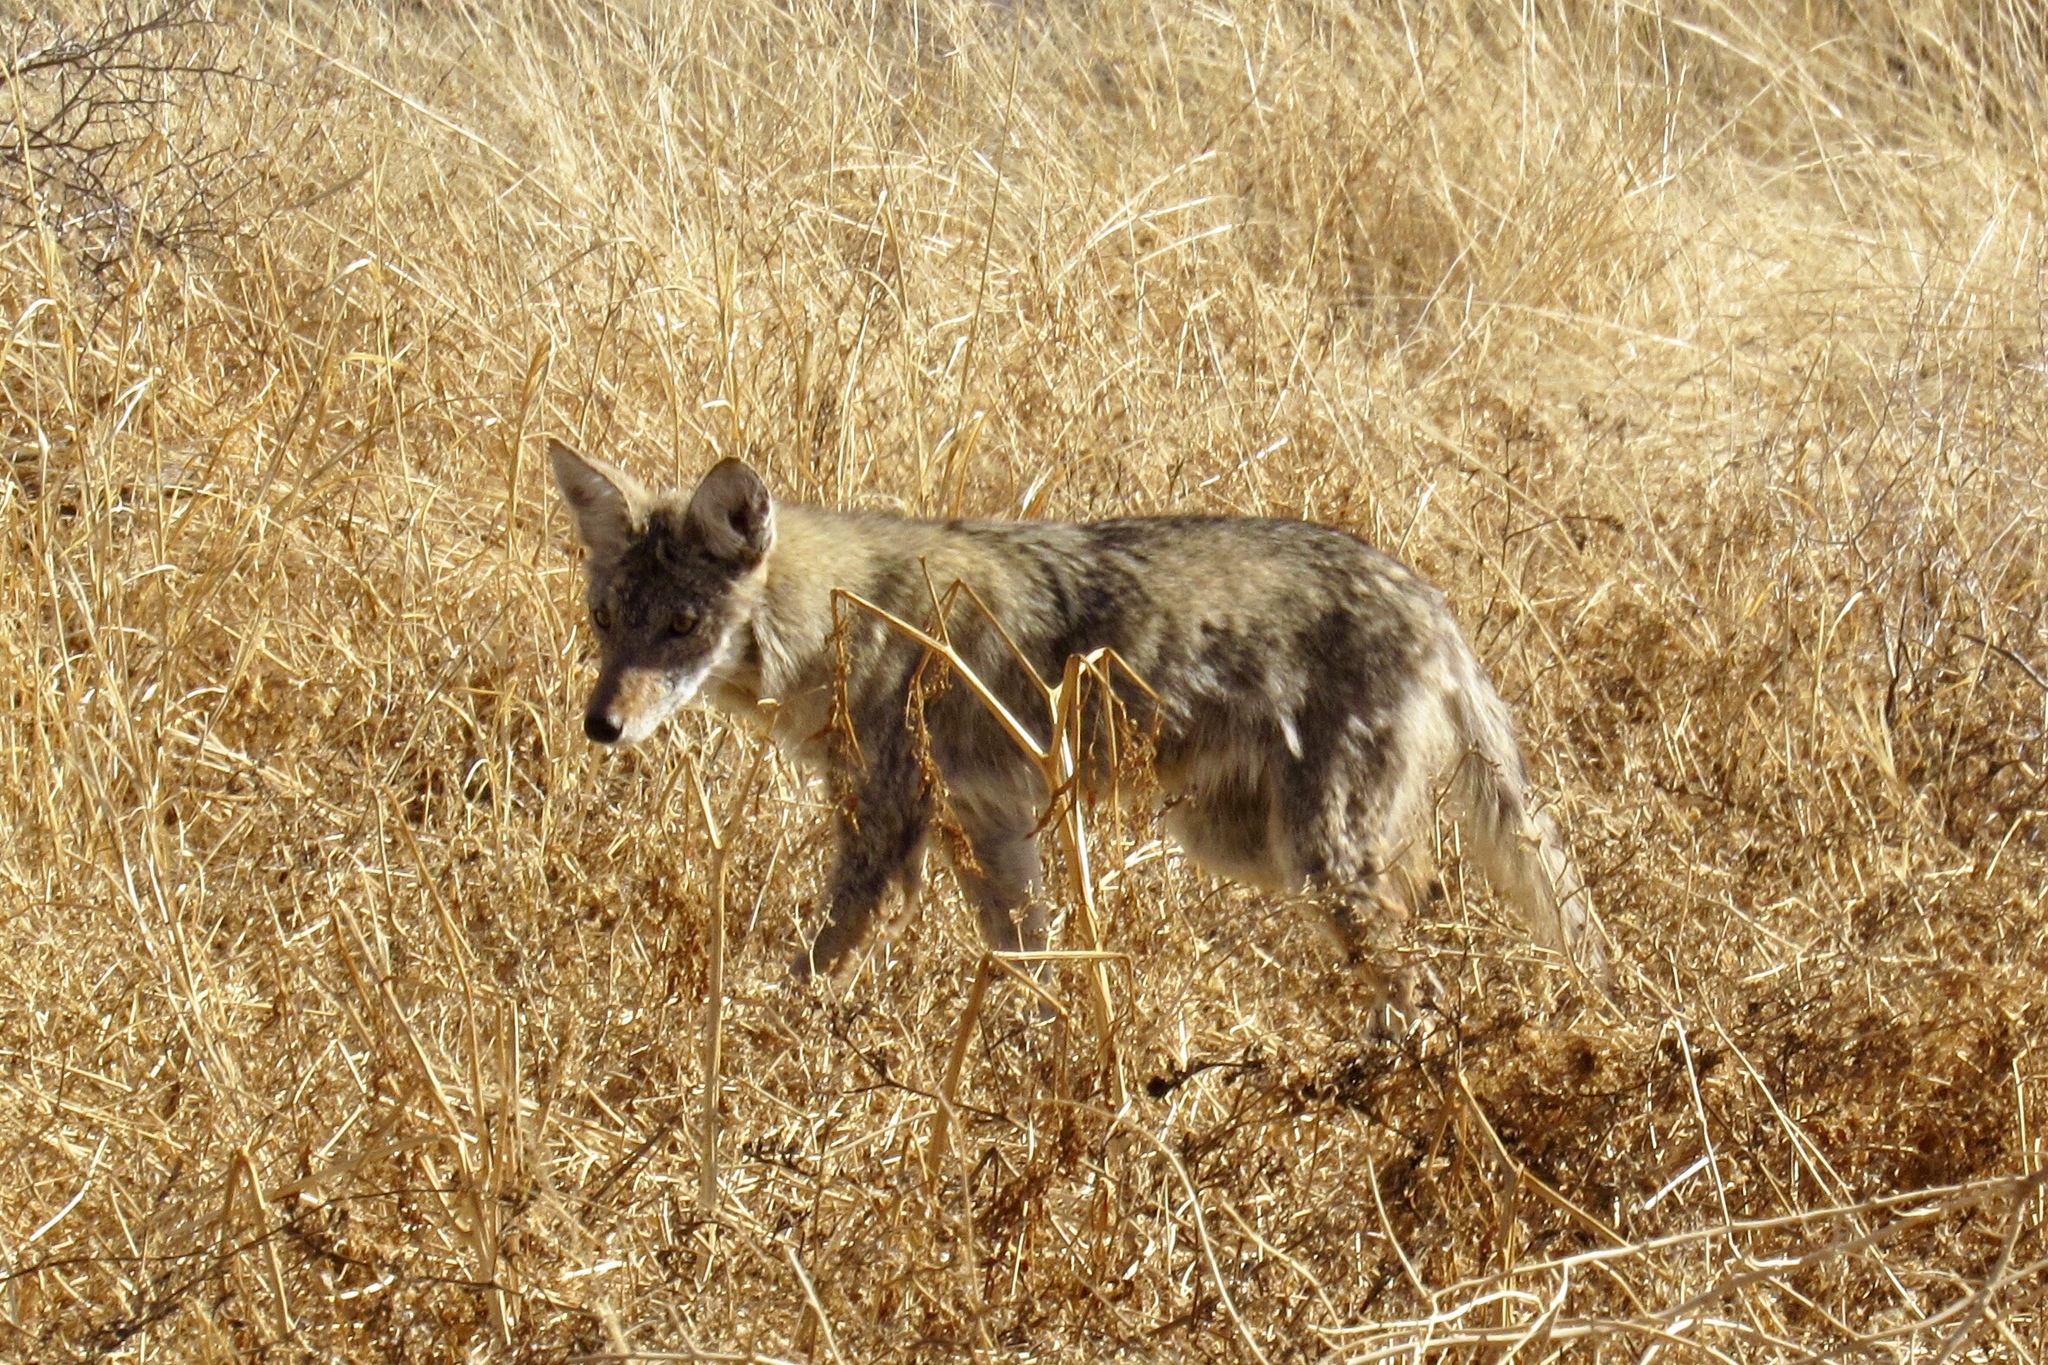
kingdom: Animalia
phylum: Chordata
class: Mammalia
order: Carnivora
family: Canidae
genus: Canis
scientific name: Canis latrans
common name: Coyote
